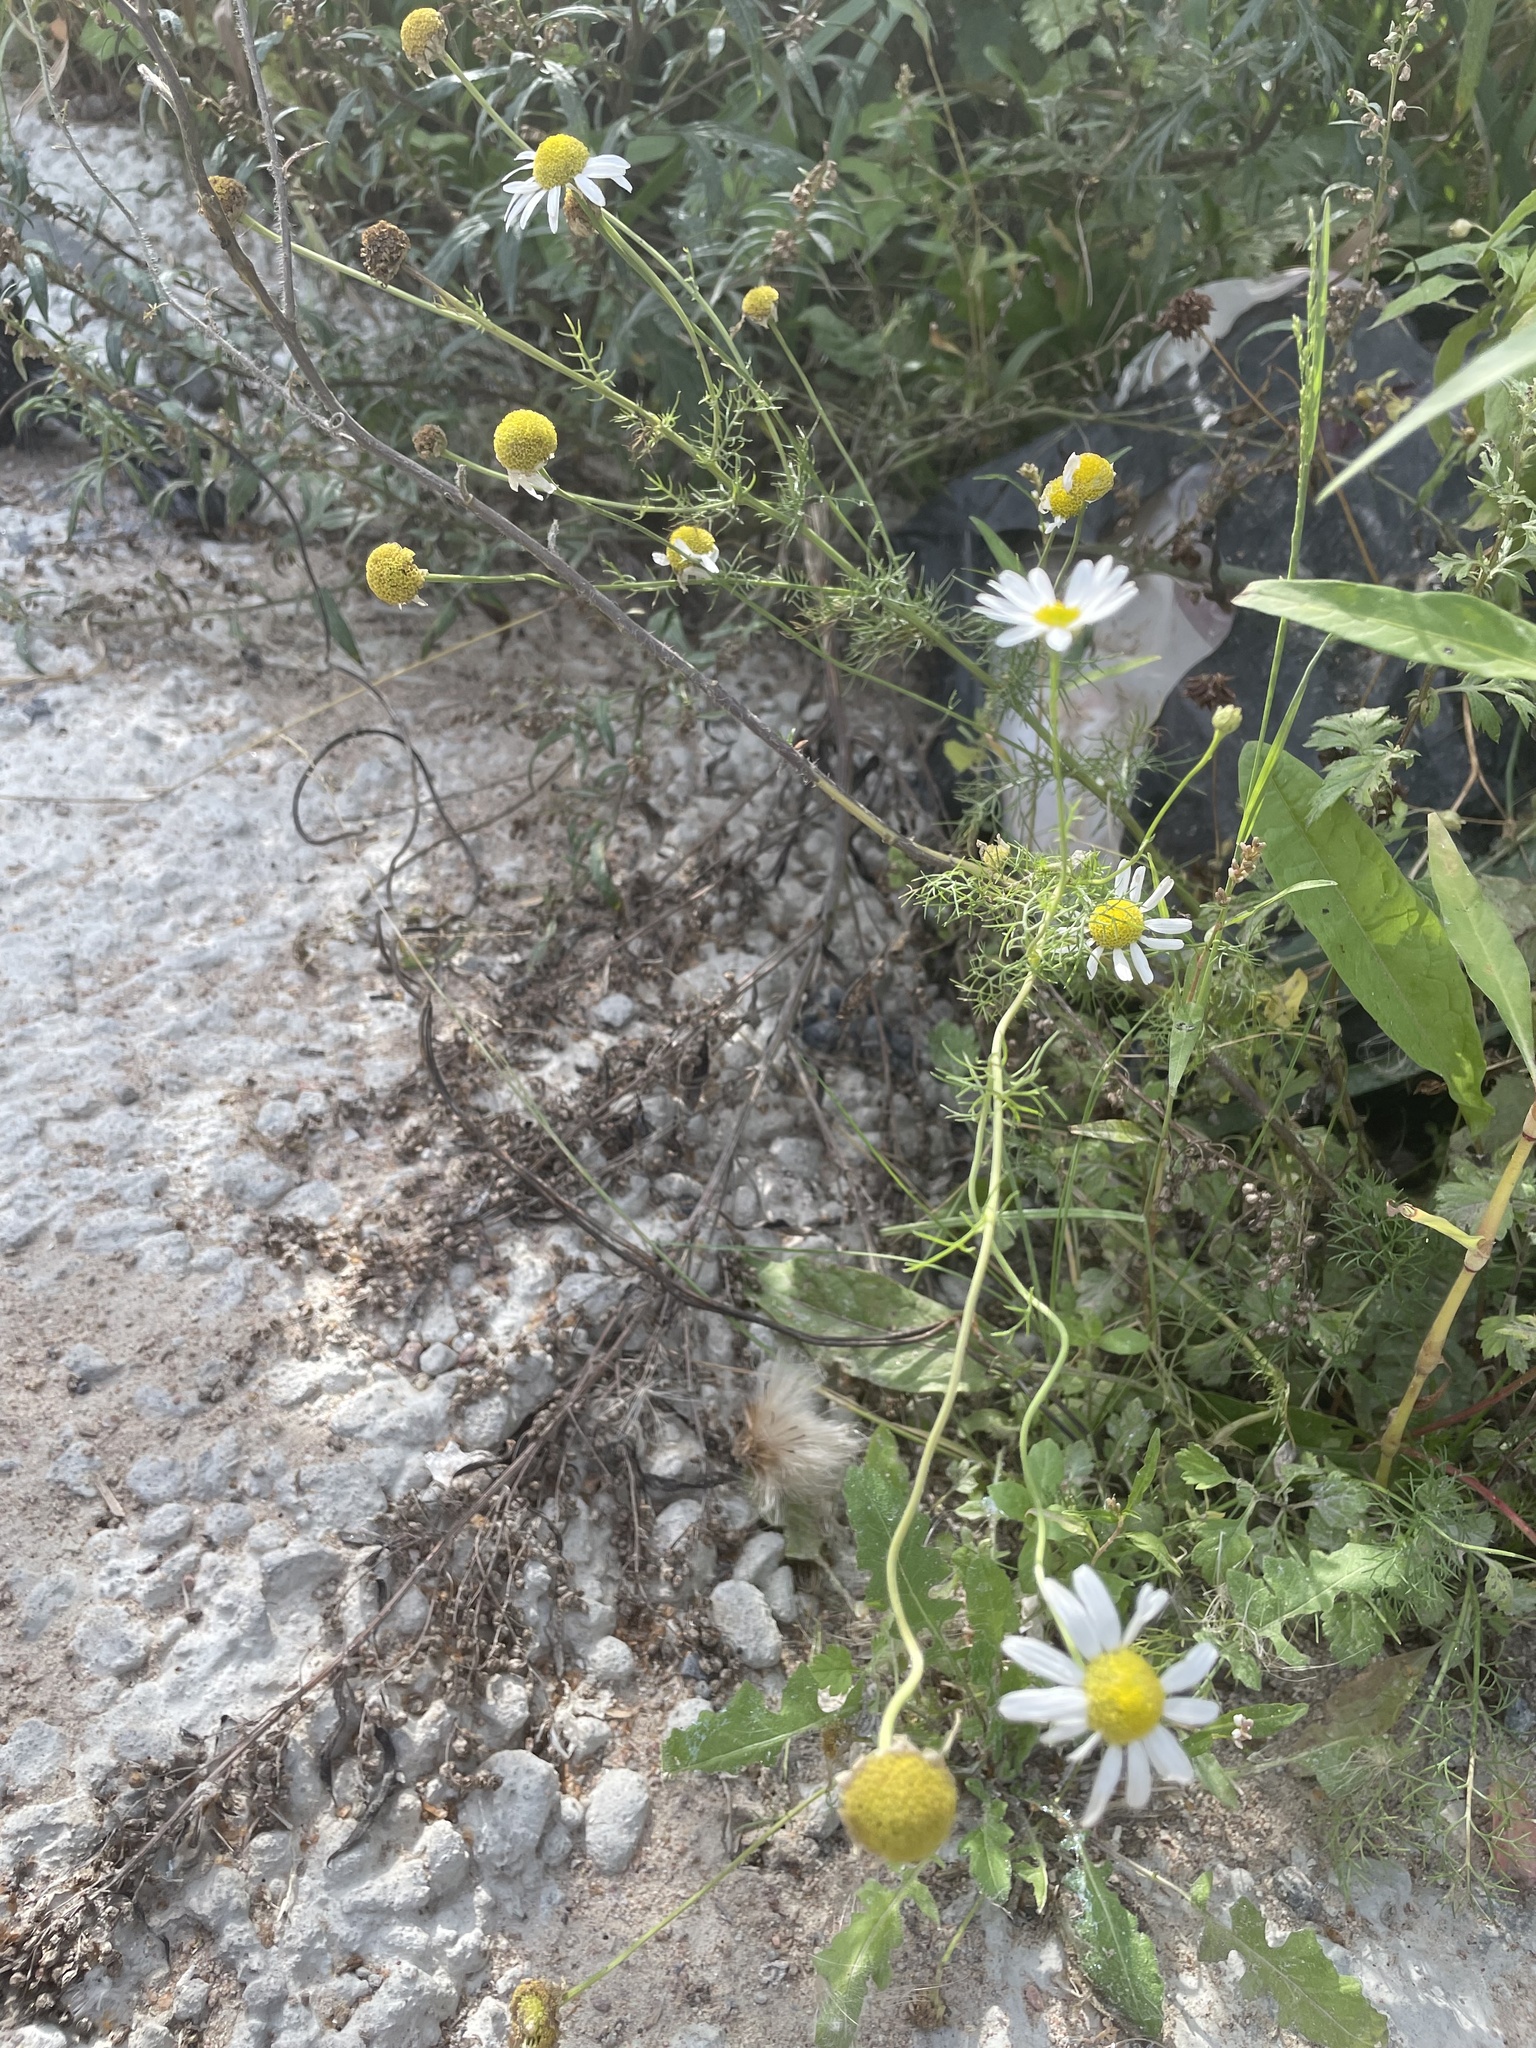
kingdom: Plantae
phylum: Tracheophyta
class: Magnoliopsida
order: Asterales
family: Asteraceae
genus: Tripleurospermum
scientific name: Tripleurospermum inodorum
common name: Scentless mayweed
